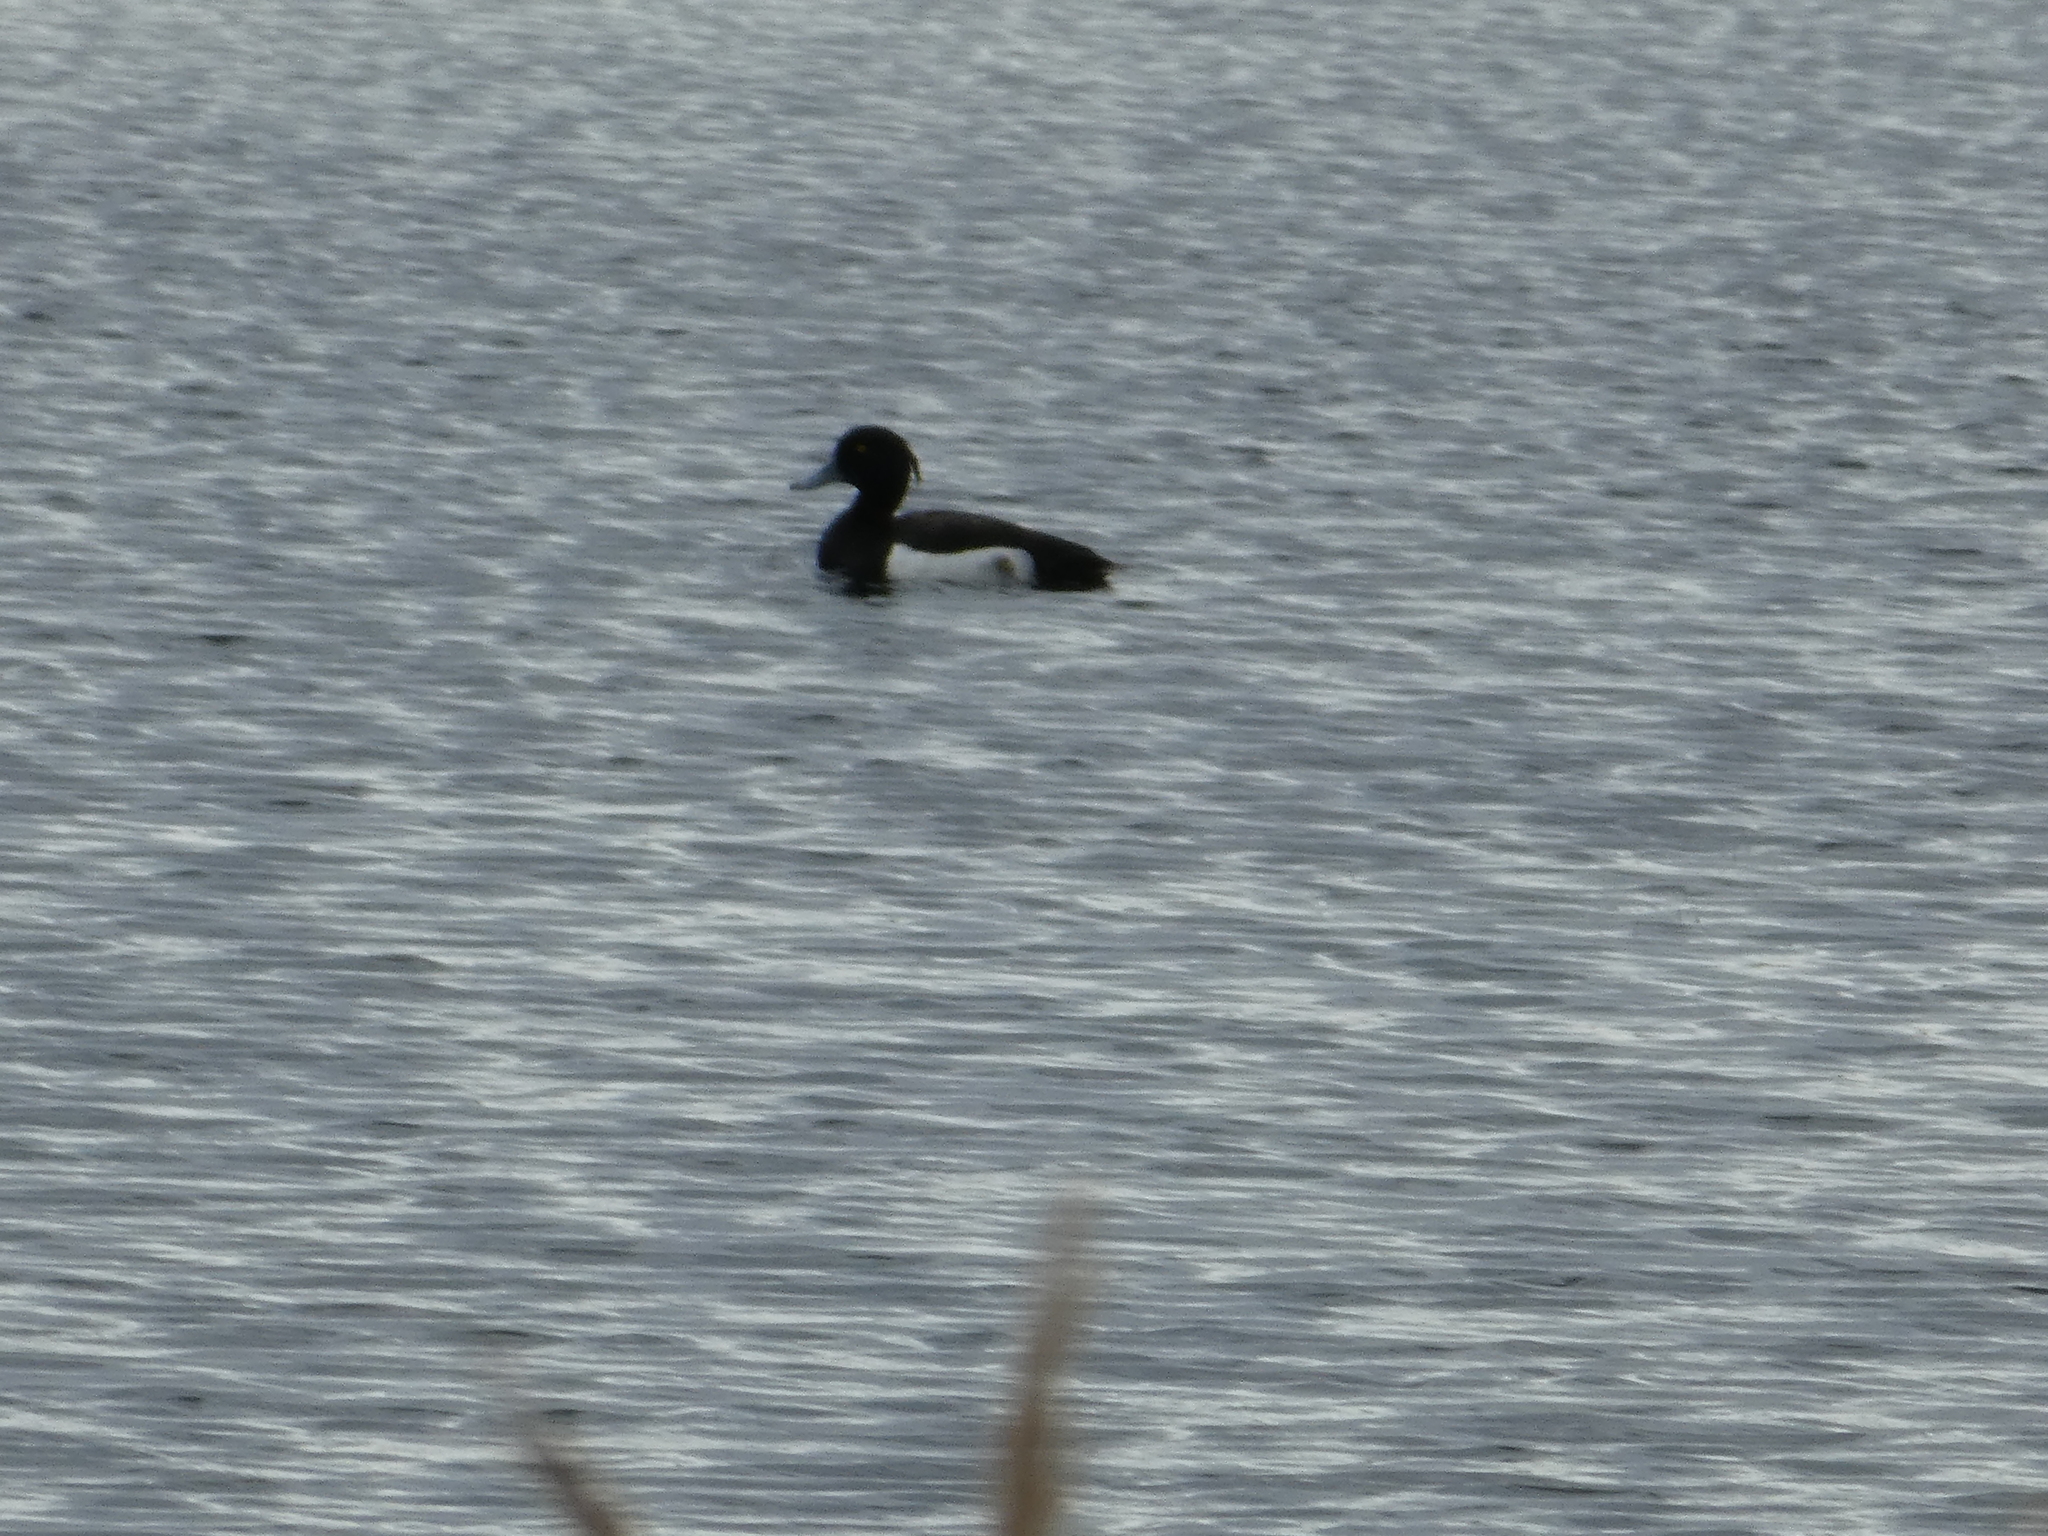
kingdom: Animalia
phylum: Chordata
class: Aves
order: Anseriformes
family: Anatidae
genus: Aythya
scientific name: Aythya fuligula
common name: Tufted duck
